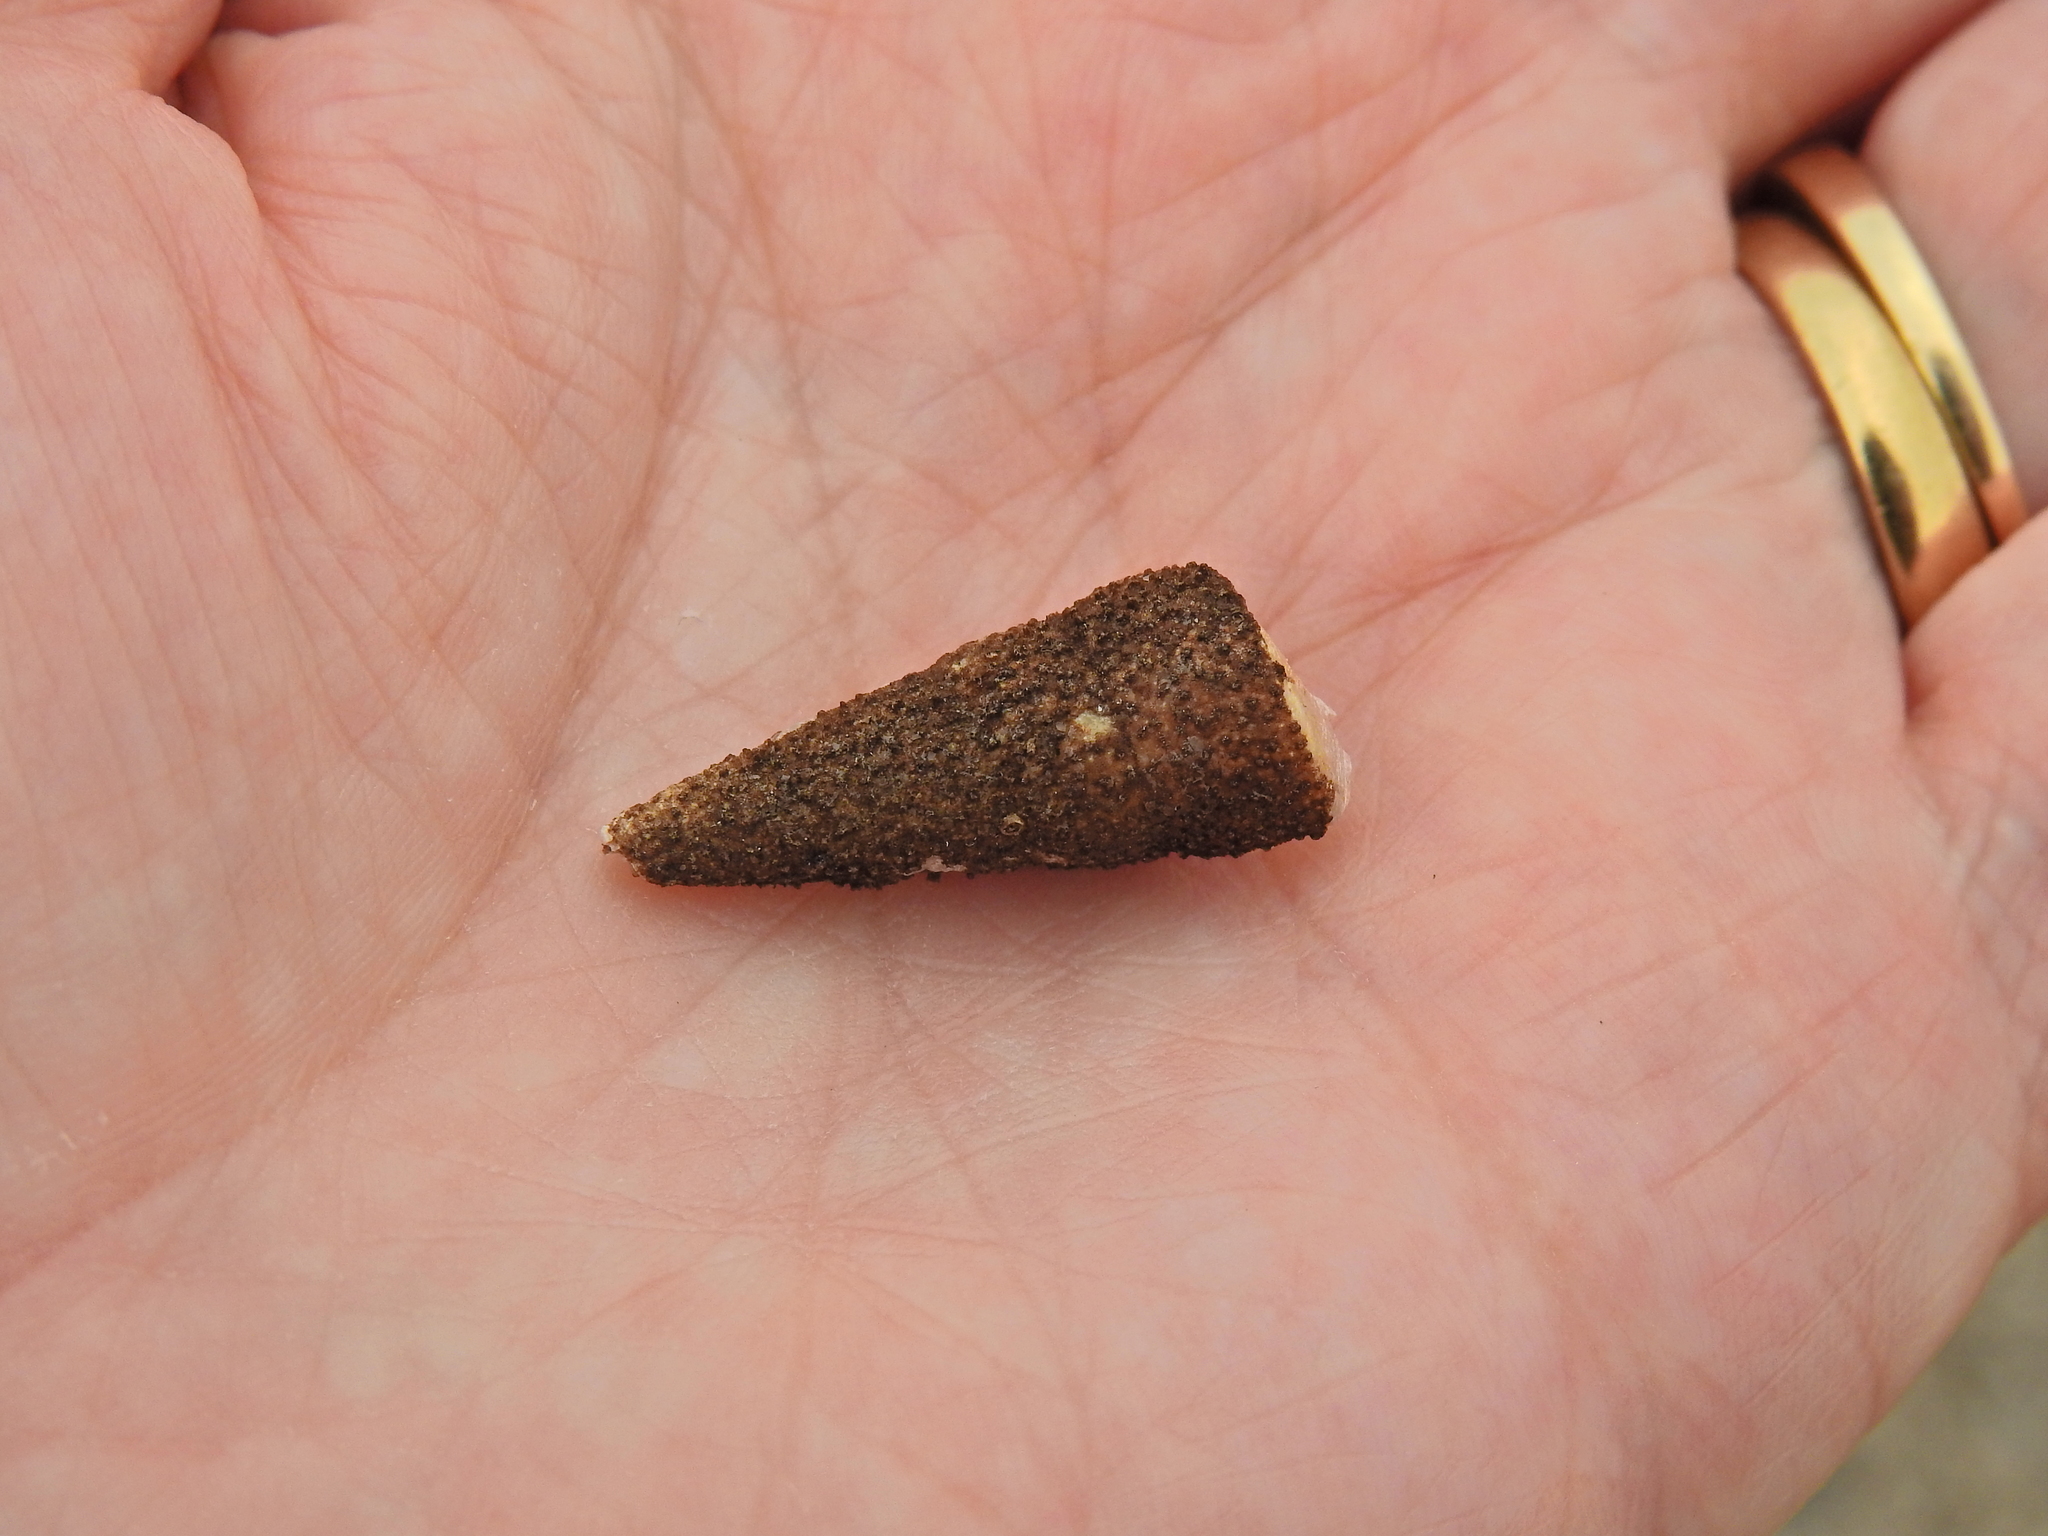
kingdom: Animalia
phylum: Cnidaria
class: Hydrozoa
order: Anthoathecata
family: Hydractiniidae
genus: Hydractinia
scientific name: Hydractinia echinata
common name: Rough hydroid
